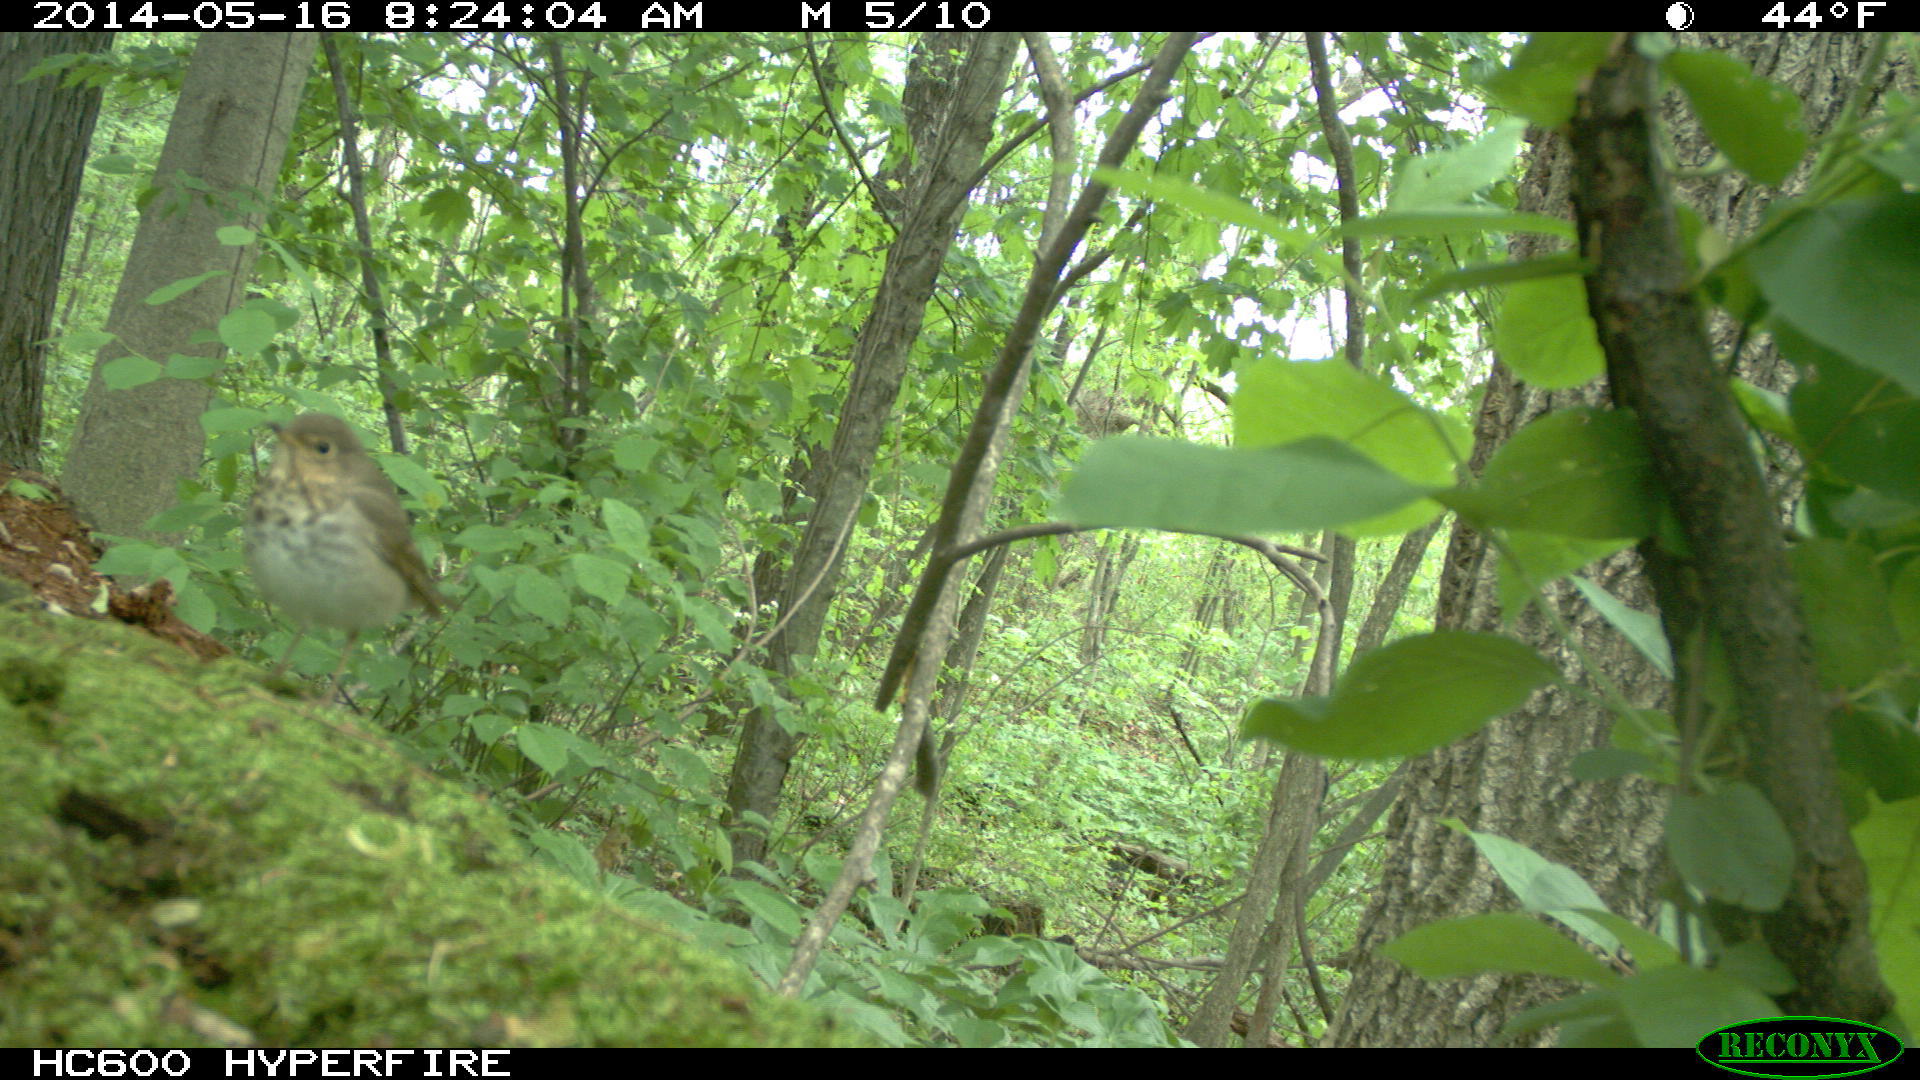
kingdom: Animalia
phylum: Chordata
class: Aves
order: Passeriformes
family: Turdidae
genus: Catharus
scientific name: Catharus guttatus
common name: Hermit thrush
